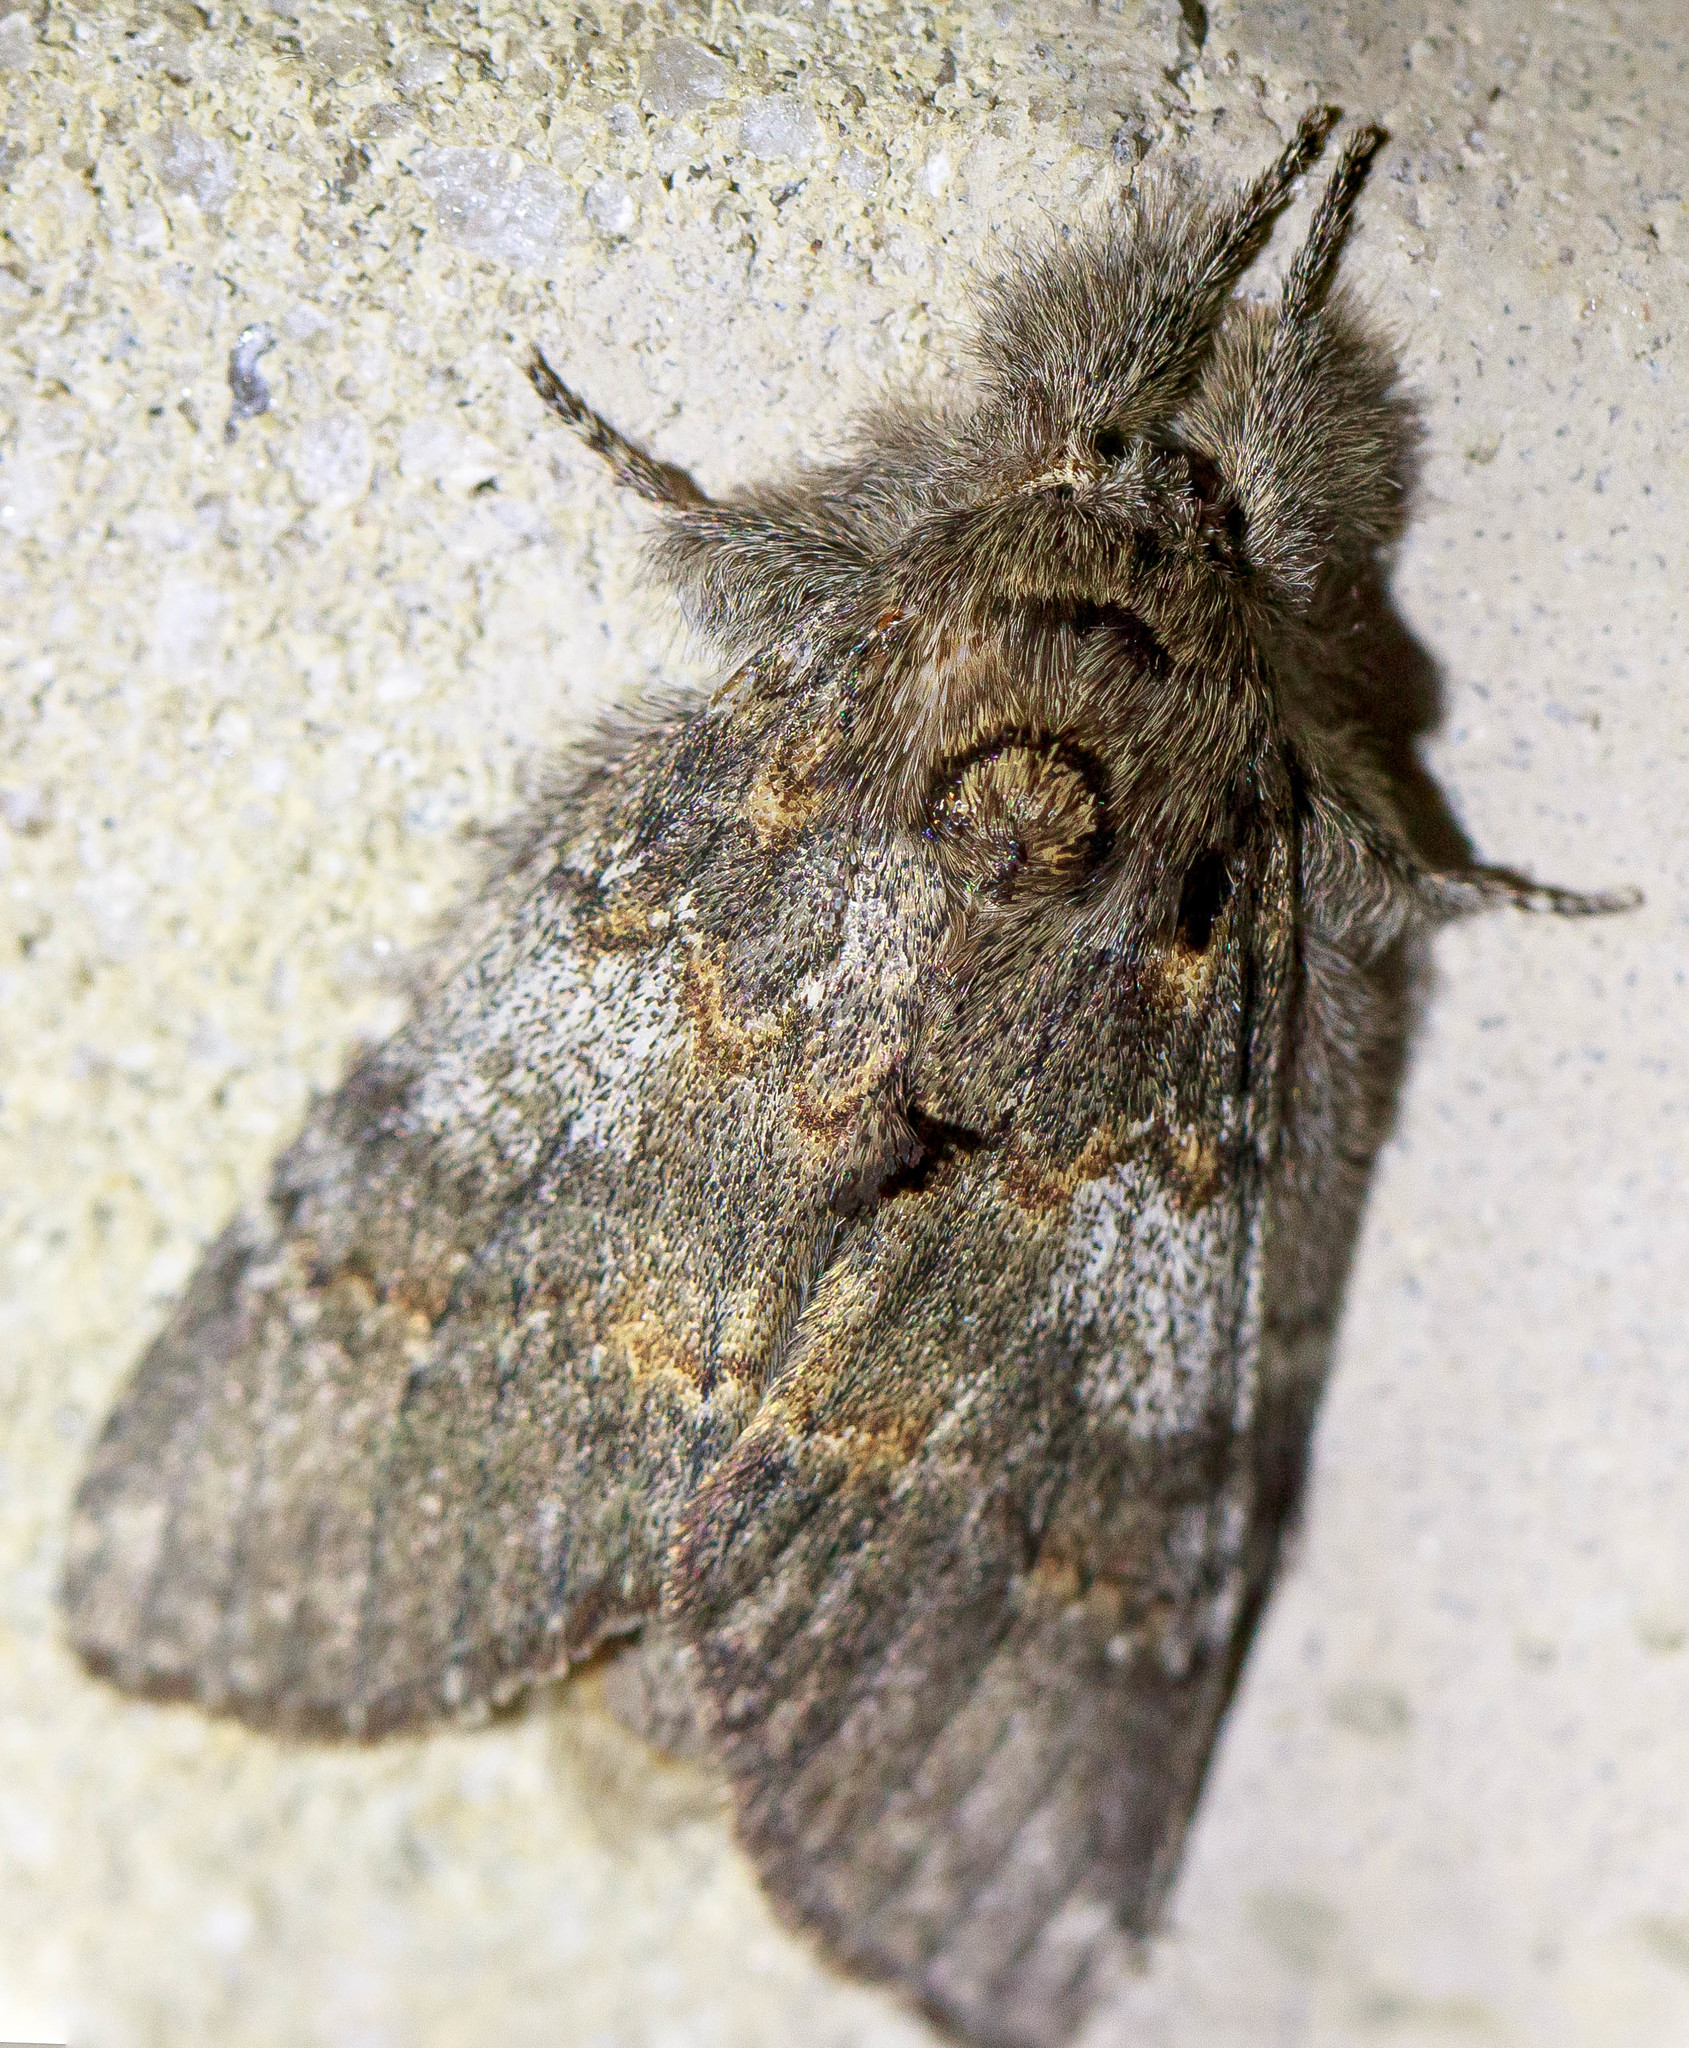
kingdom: Animalia
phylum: Arthropoda
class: Insecta
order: Lepidoptera
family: Notodontidae
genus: Peridea
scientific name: Peridea angulosa
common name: Angulose prominent
